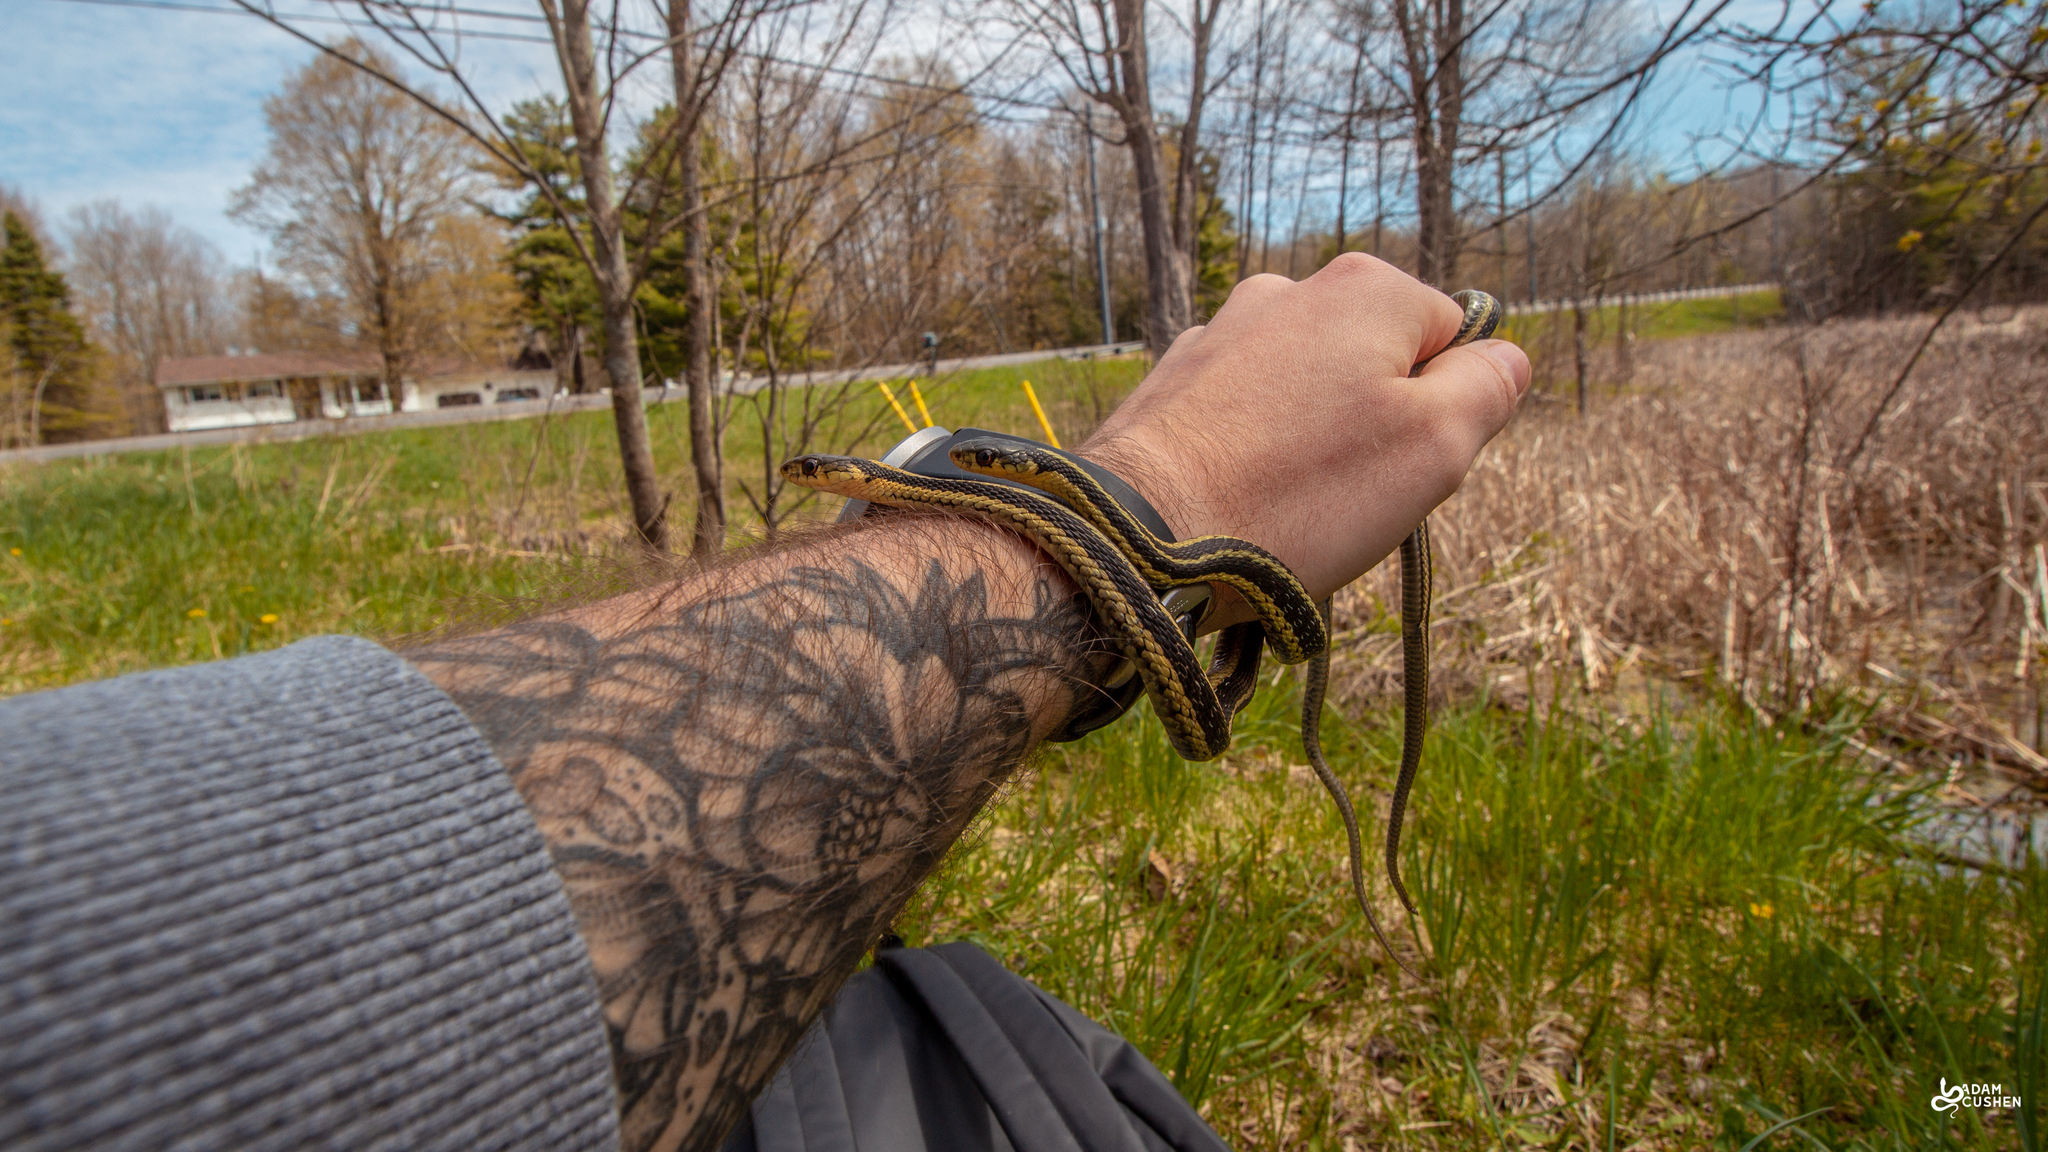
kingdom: Animalia
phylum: Chordata
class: Squamata
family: Colubridae
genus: Thamnophis
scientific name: Thamnophis sirtalis
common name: Common garter snake
